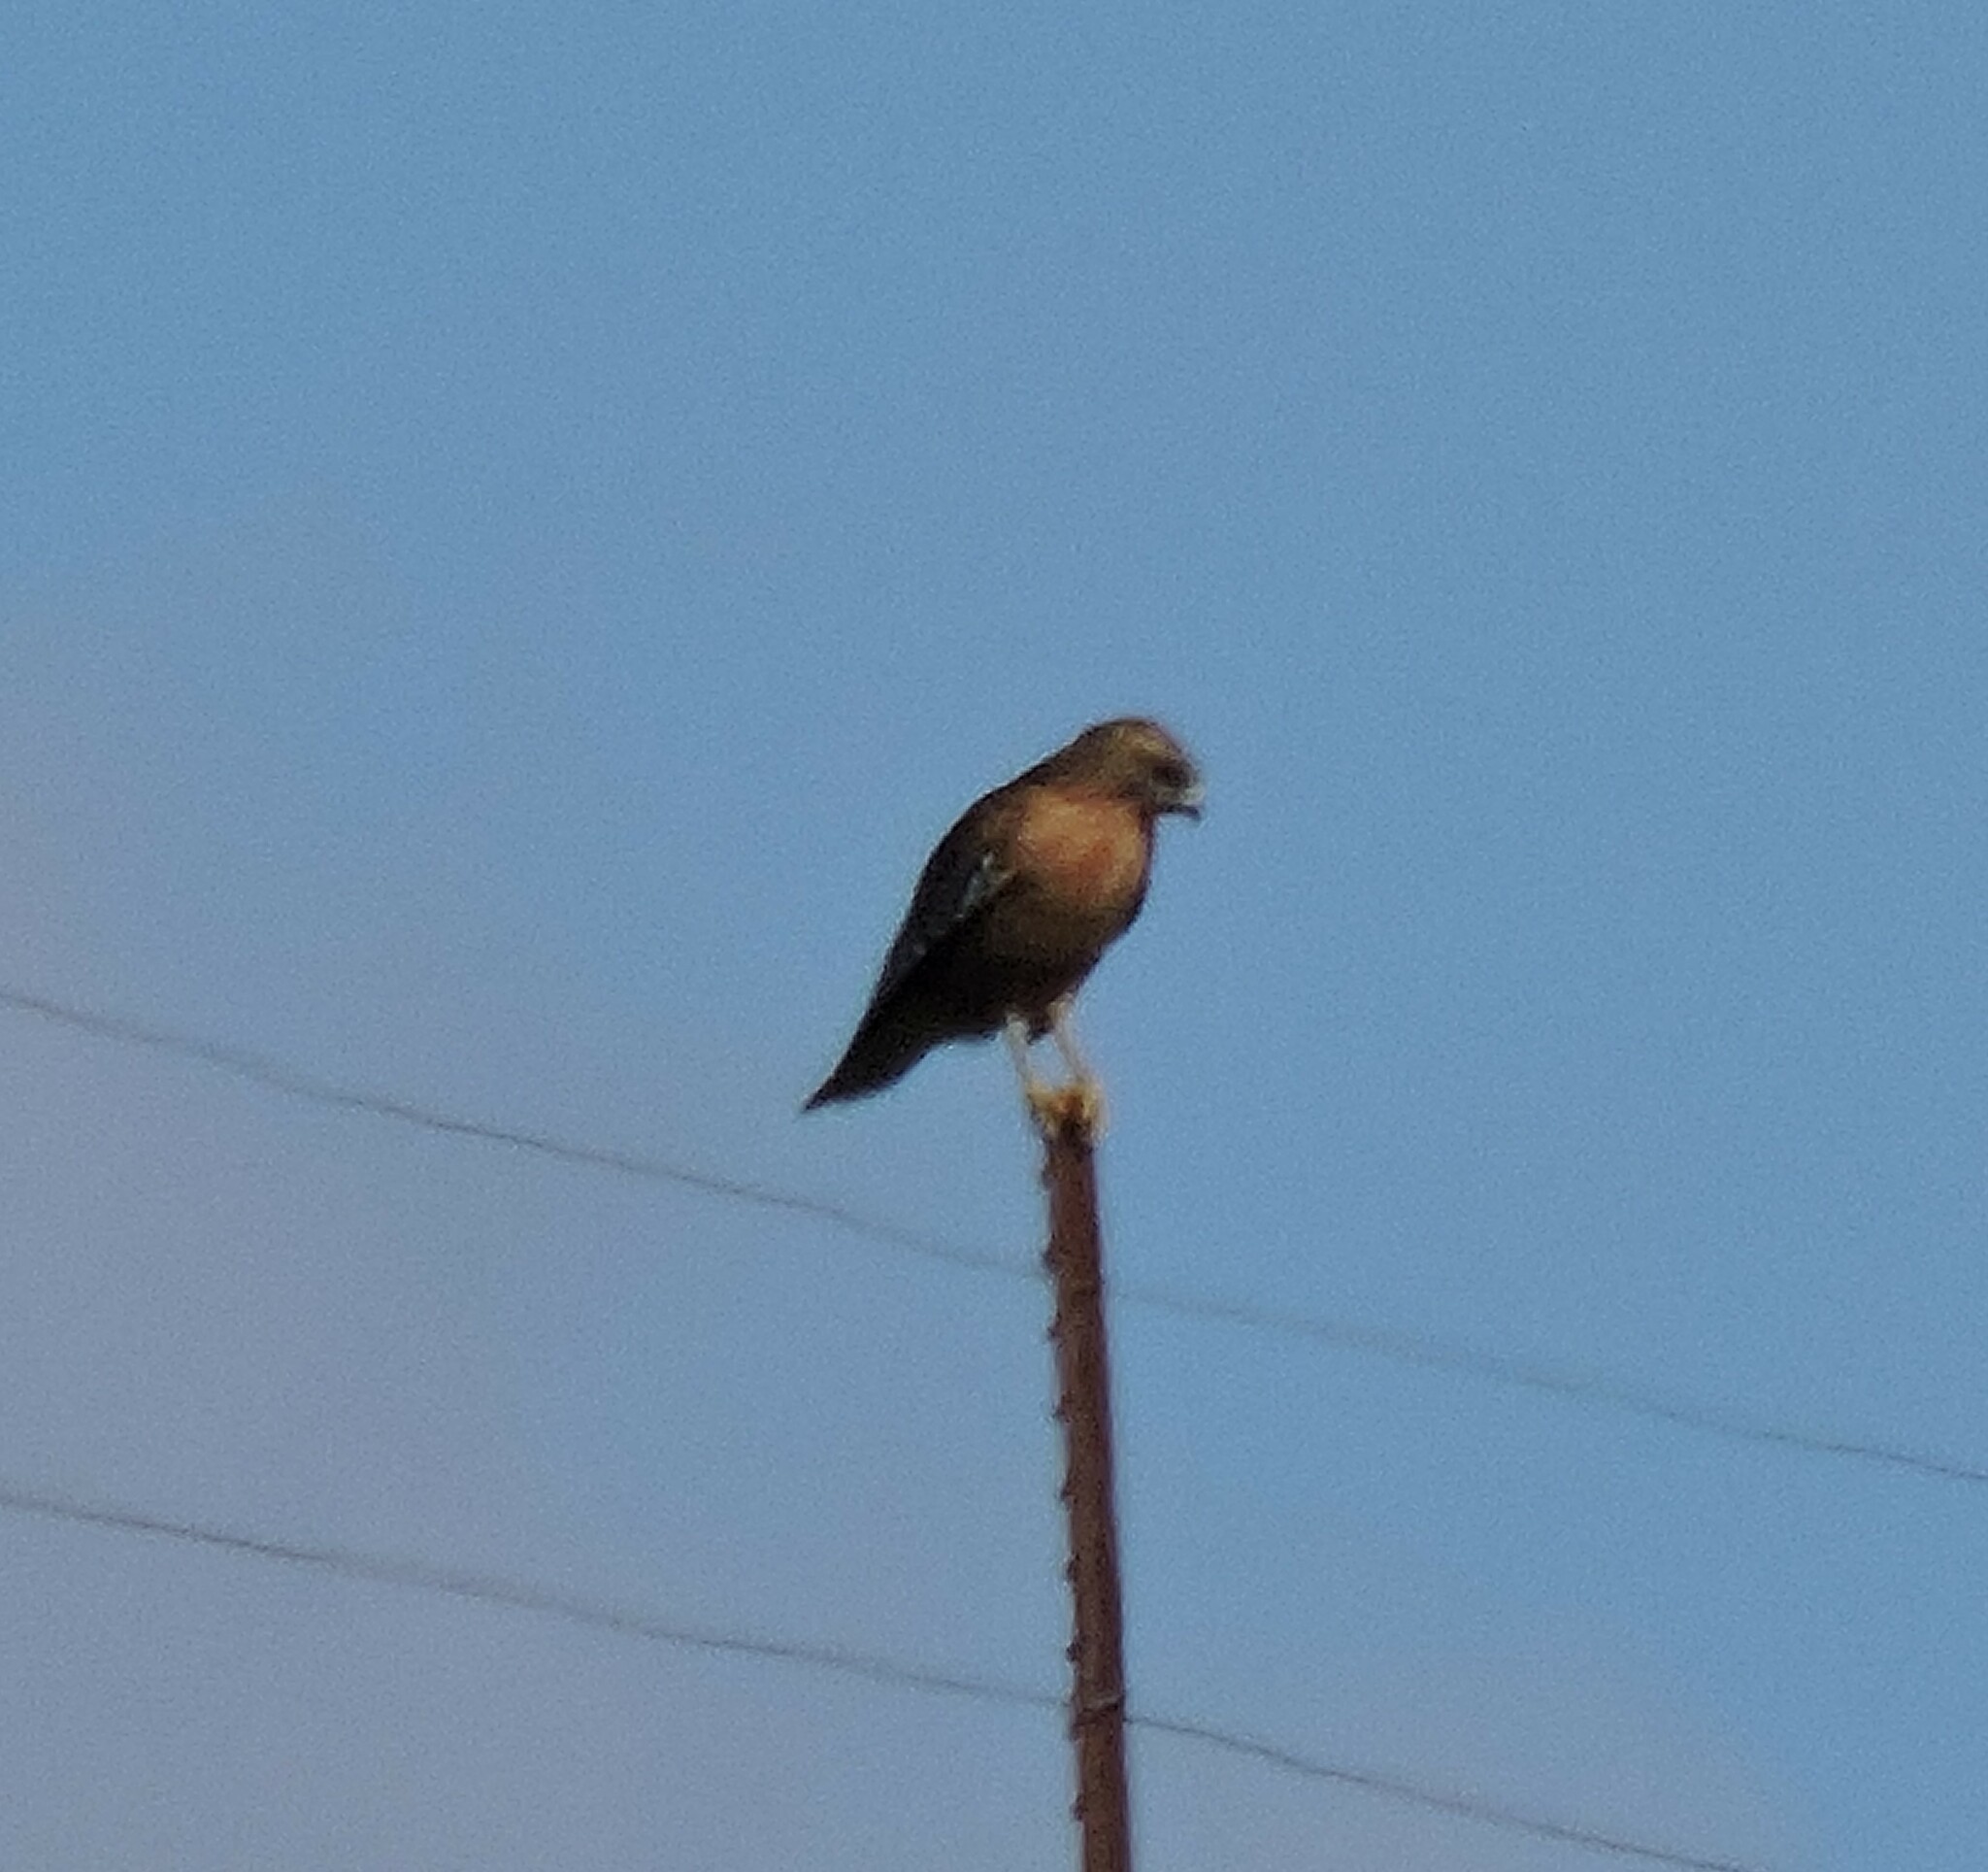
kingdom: Animalia
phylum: Chordata
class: Aves
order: Accipitriformes
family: Accipitridae
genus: Buteo
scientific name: Buteo lineatus
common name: Red-shouldered hawk
